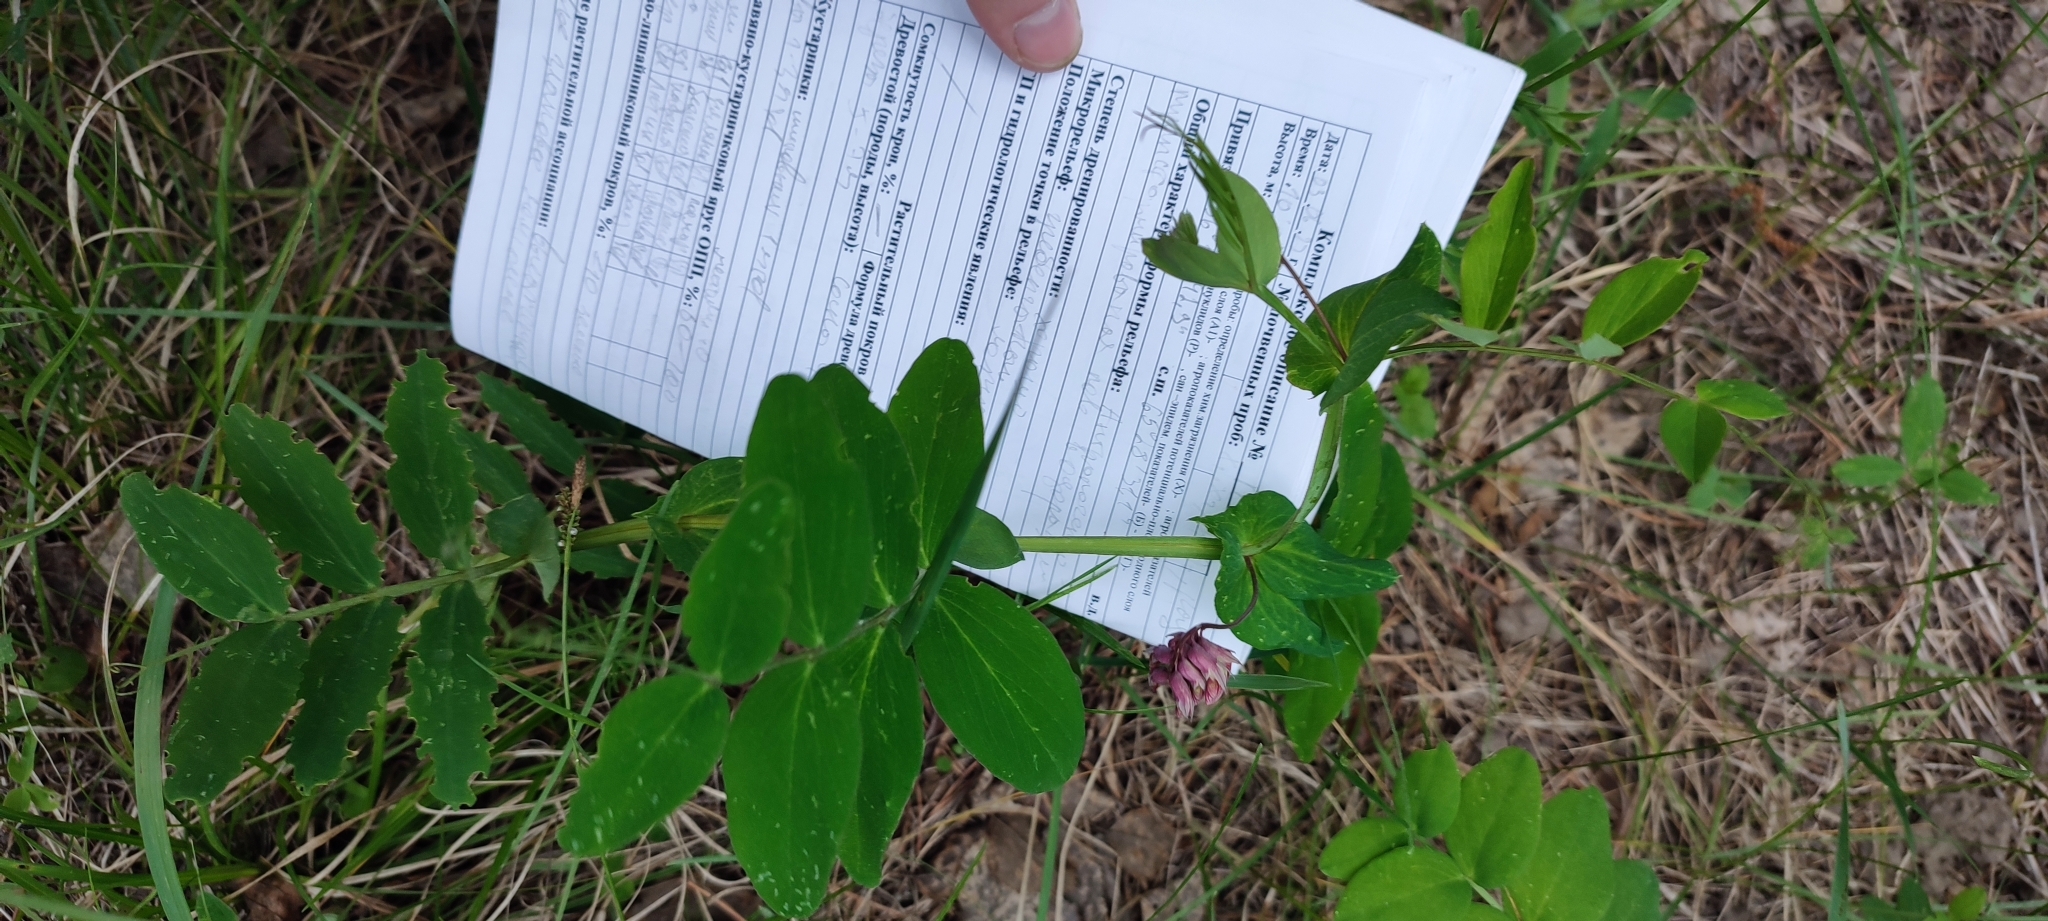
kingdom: Plantae
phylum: Tracheophyta
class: Magnoliopsida
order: Fabales
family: Fabaceae
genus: Lathyrus
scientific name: Lathyrus pisiformis
